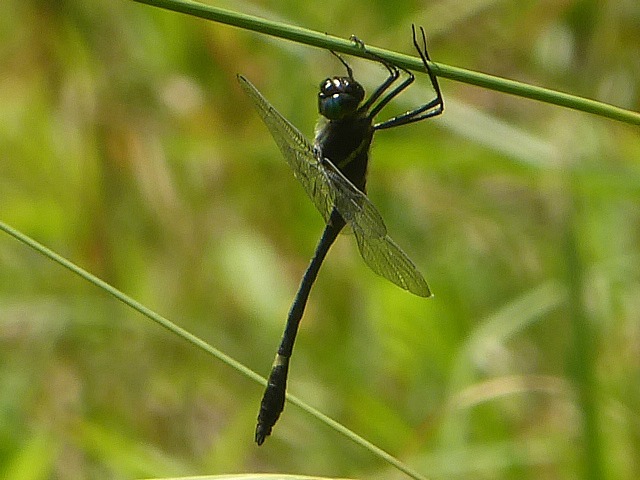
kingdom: Animalia
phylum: Arthropoda
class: Insecta
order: Odonata
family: Macromiidae
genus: Macromia
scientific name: Macromia illinoiensis
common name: Swift river cruiser
